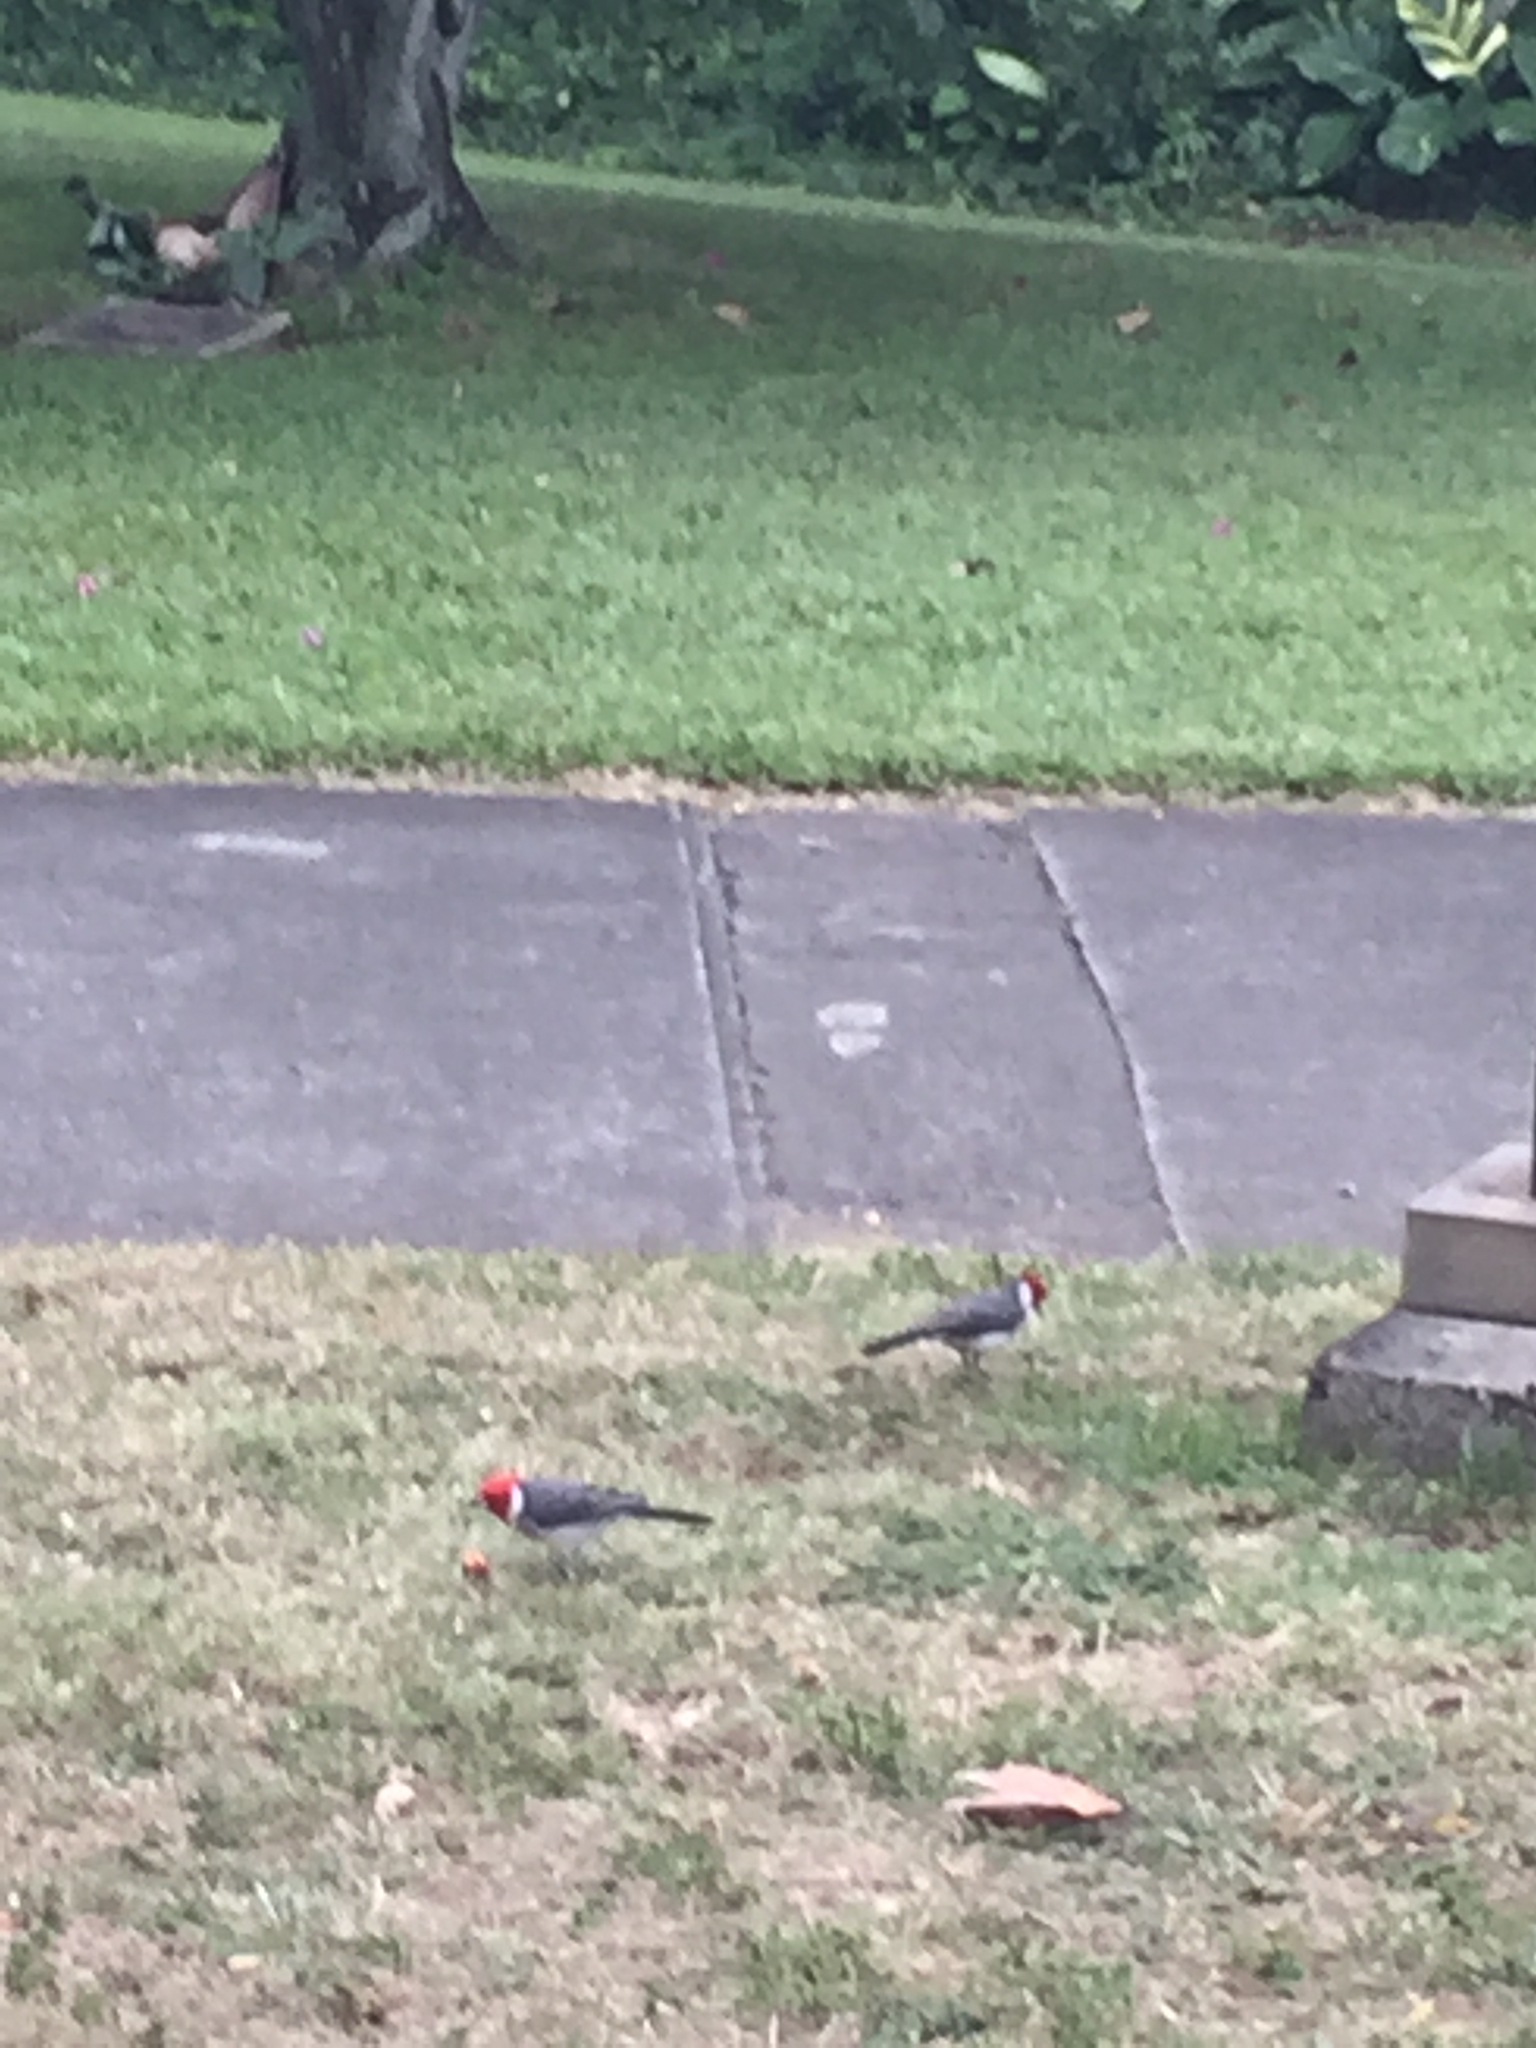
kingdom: Animalia
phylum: Chordata
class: Aves
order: Passeriformes
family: Thraupidae
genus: Paroaria
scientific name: Paroaria coronata
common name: Red-crested cardinal
